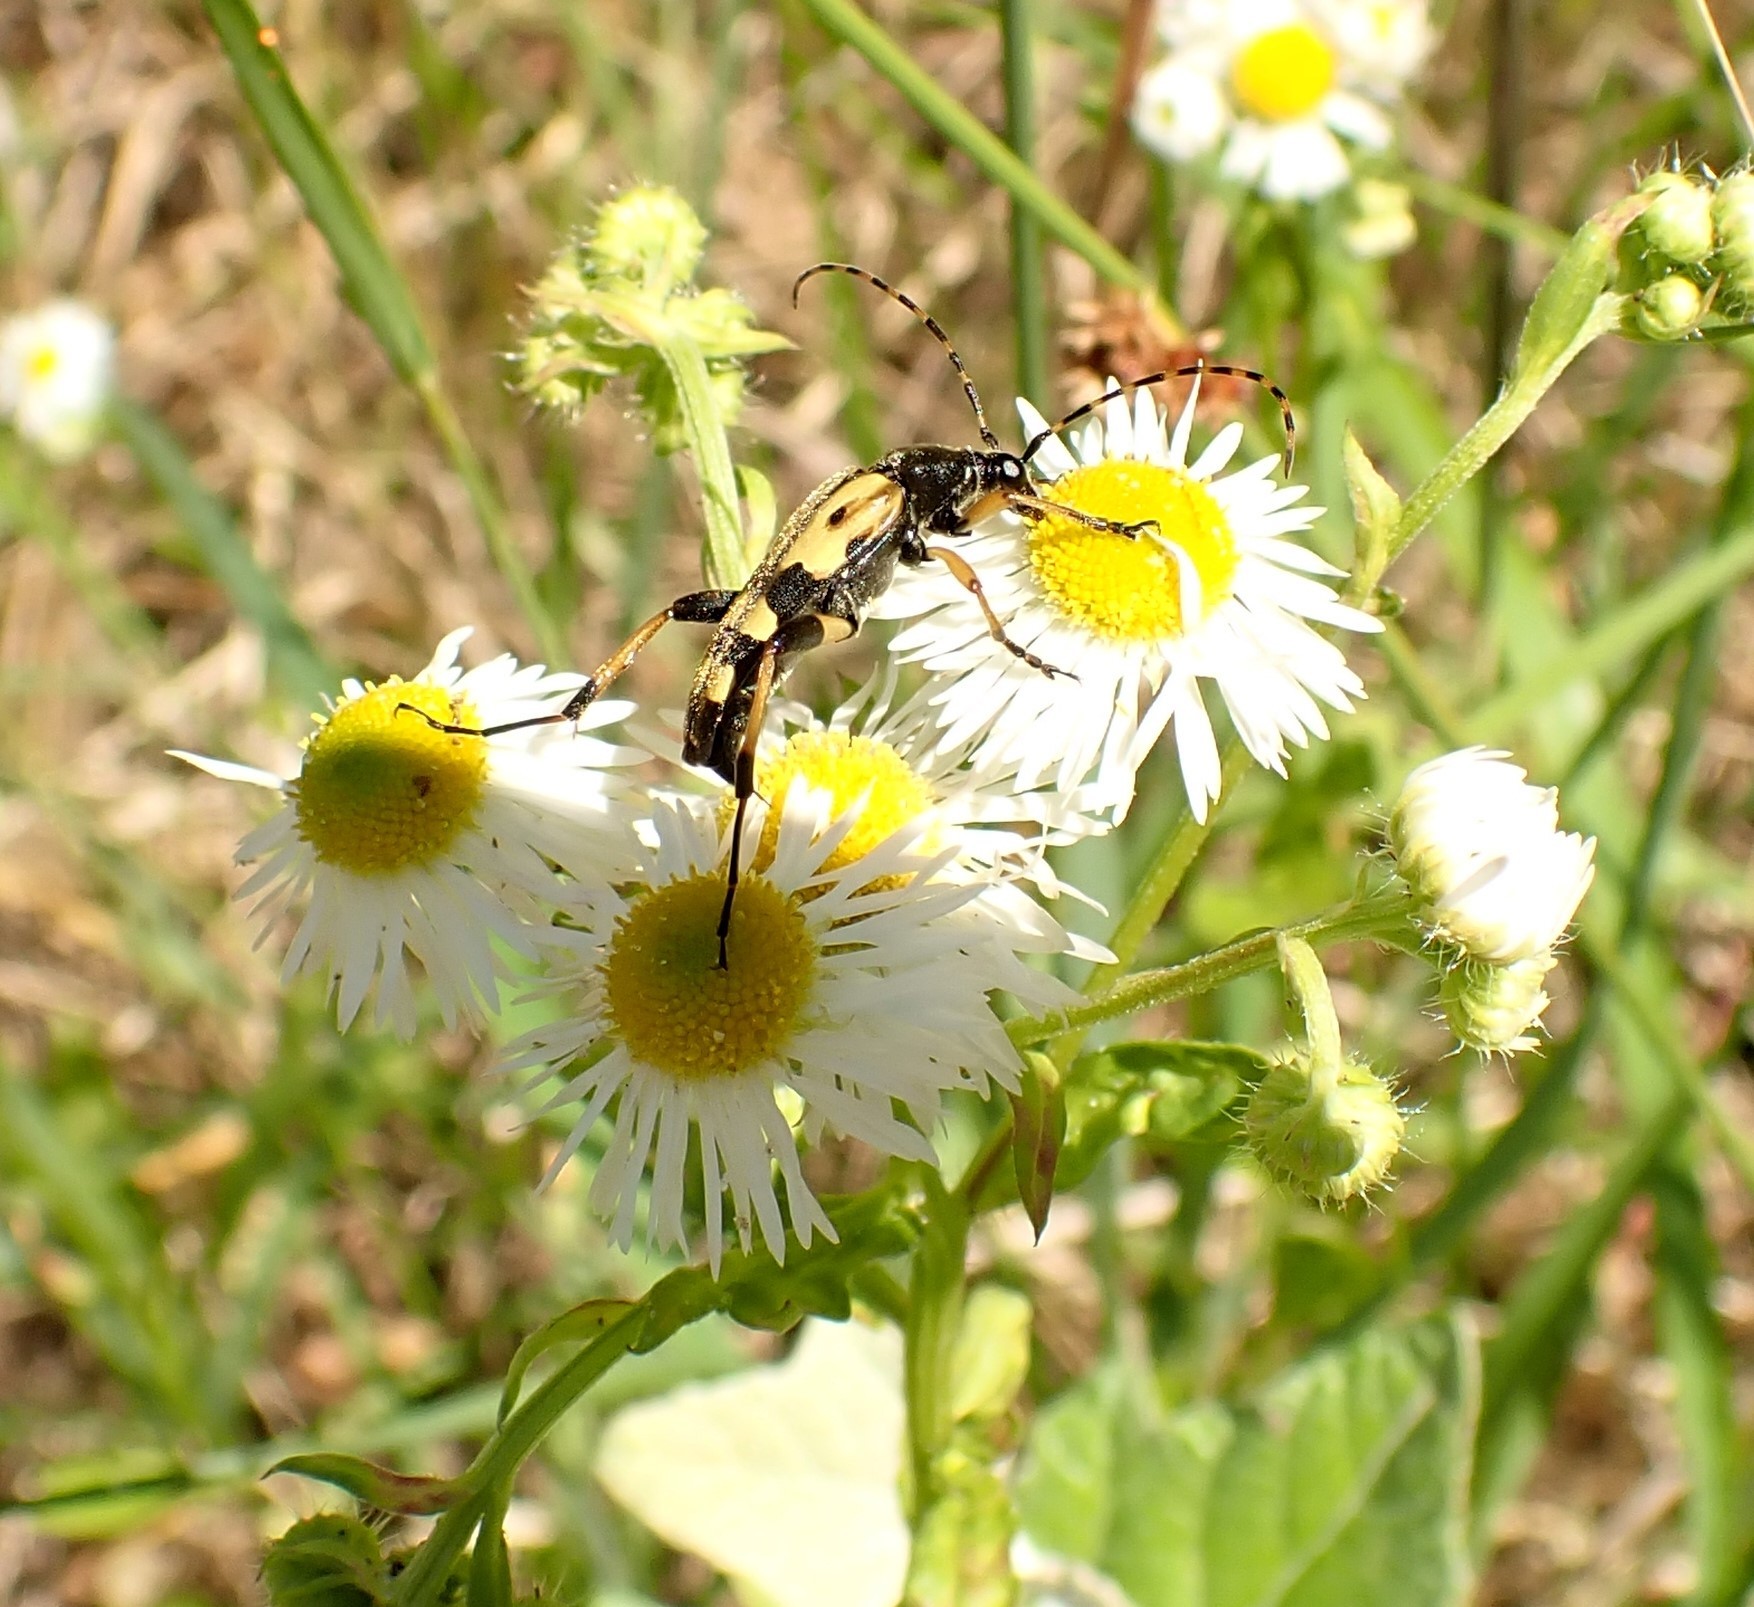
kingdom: Animalia
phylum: Arthropoda
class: Insecta
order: Coleoptera
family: Cerambycidae
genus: Rutpela
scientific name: Rutpela maculata
